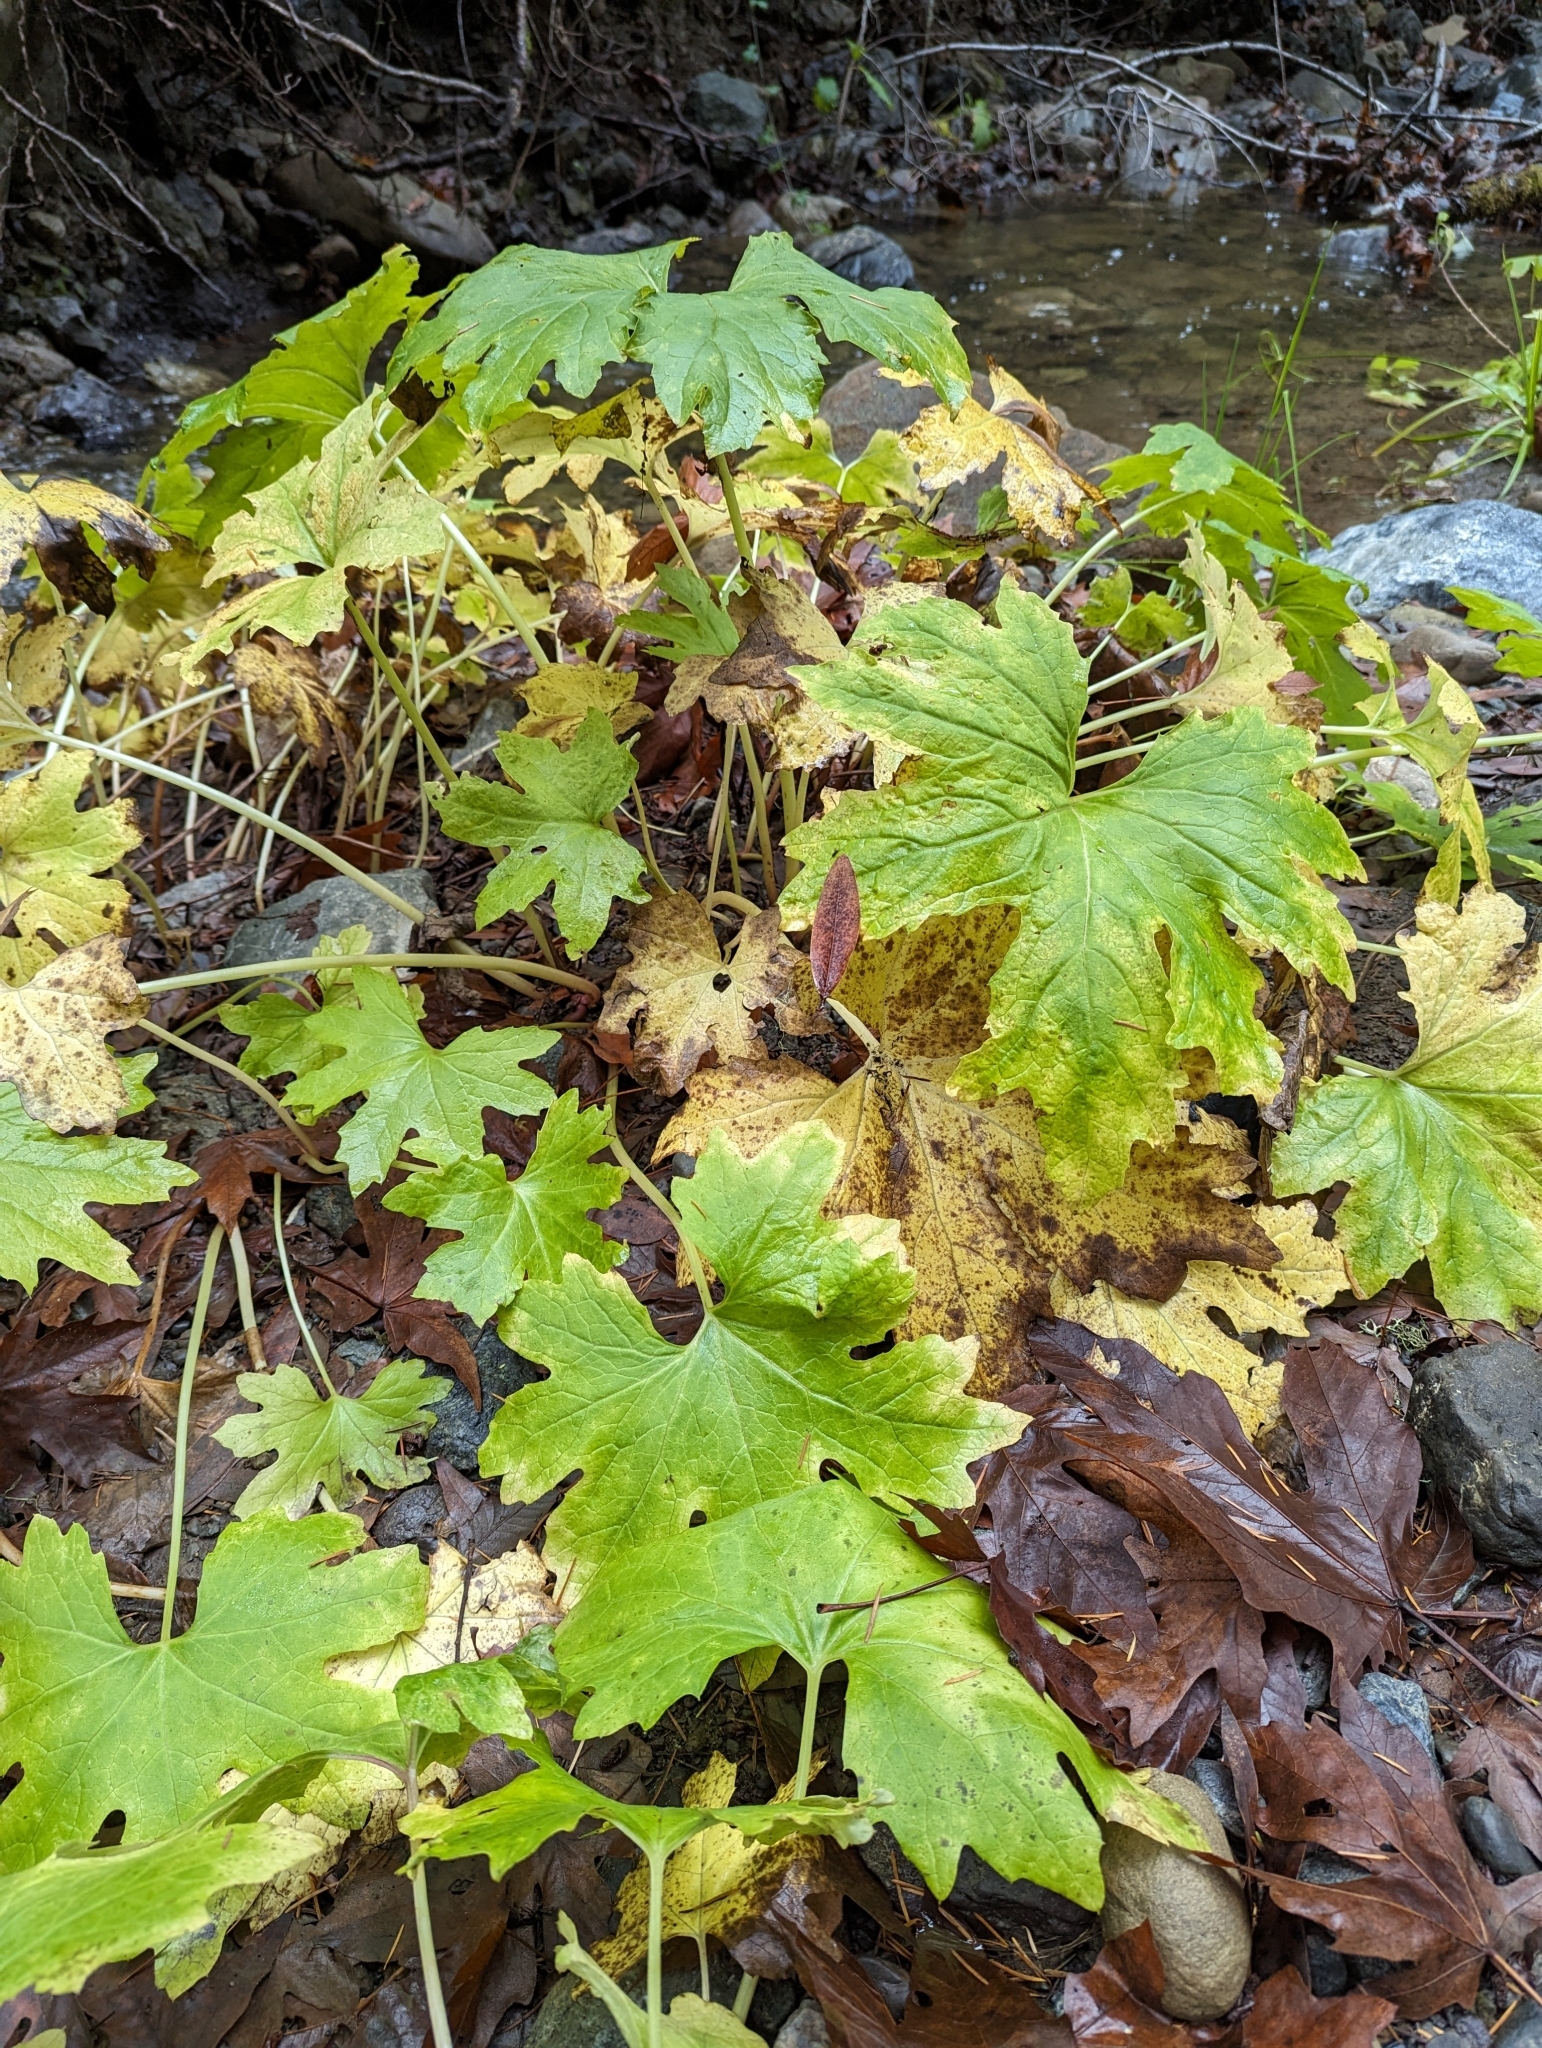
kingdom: Plantae
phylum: Tracheophyta
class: Magnoliopsida
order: Asterales
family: Asteraceae
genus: Petasites
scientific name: Petasites frigidus
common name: Arctic butterbur
